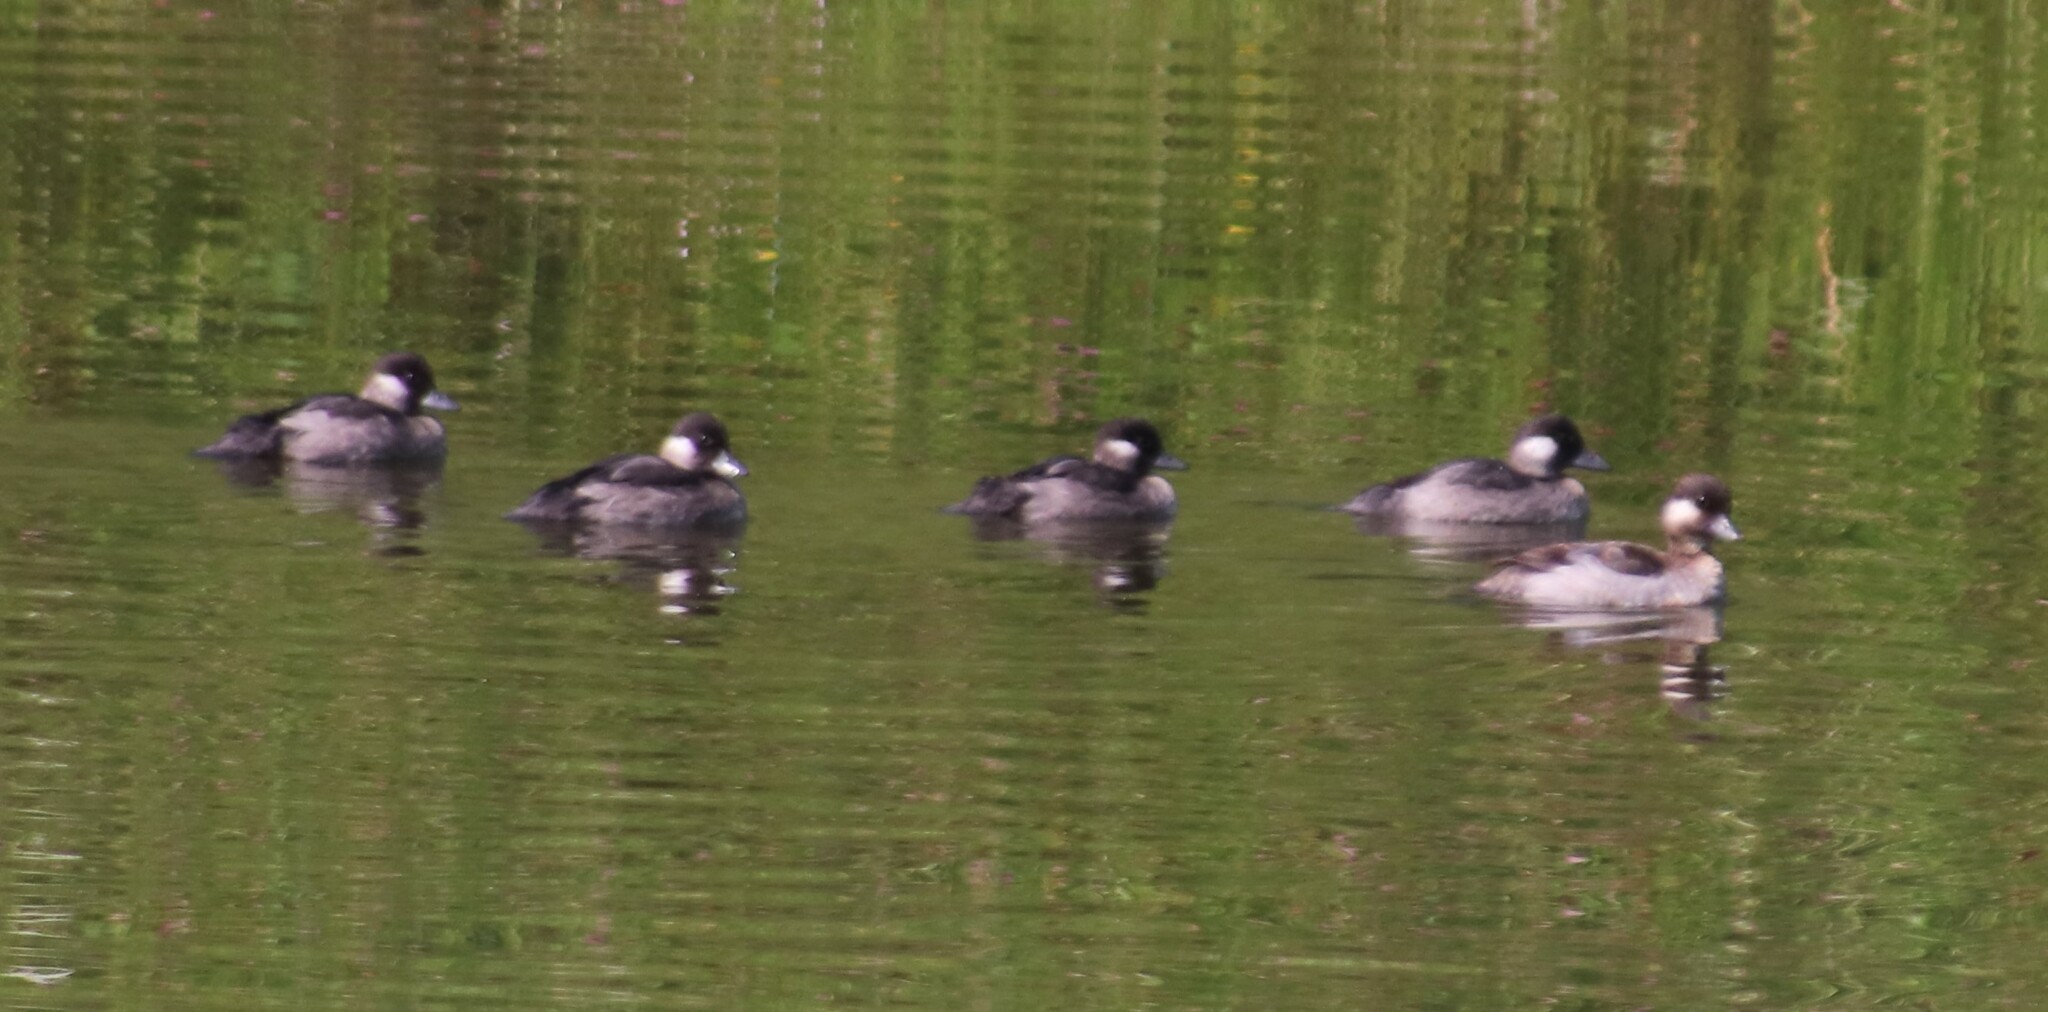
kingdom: Animalia
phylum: Chordata
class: Aves
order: Anseriformes
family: Anatidae
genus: Bucephala
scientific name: Bucephala albeola
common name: Bufflehead
